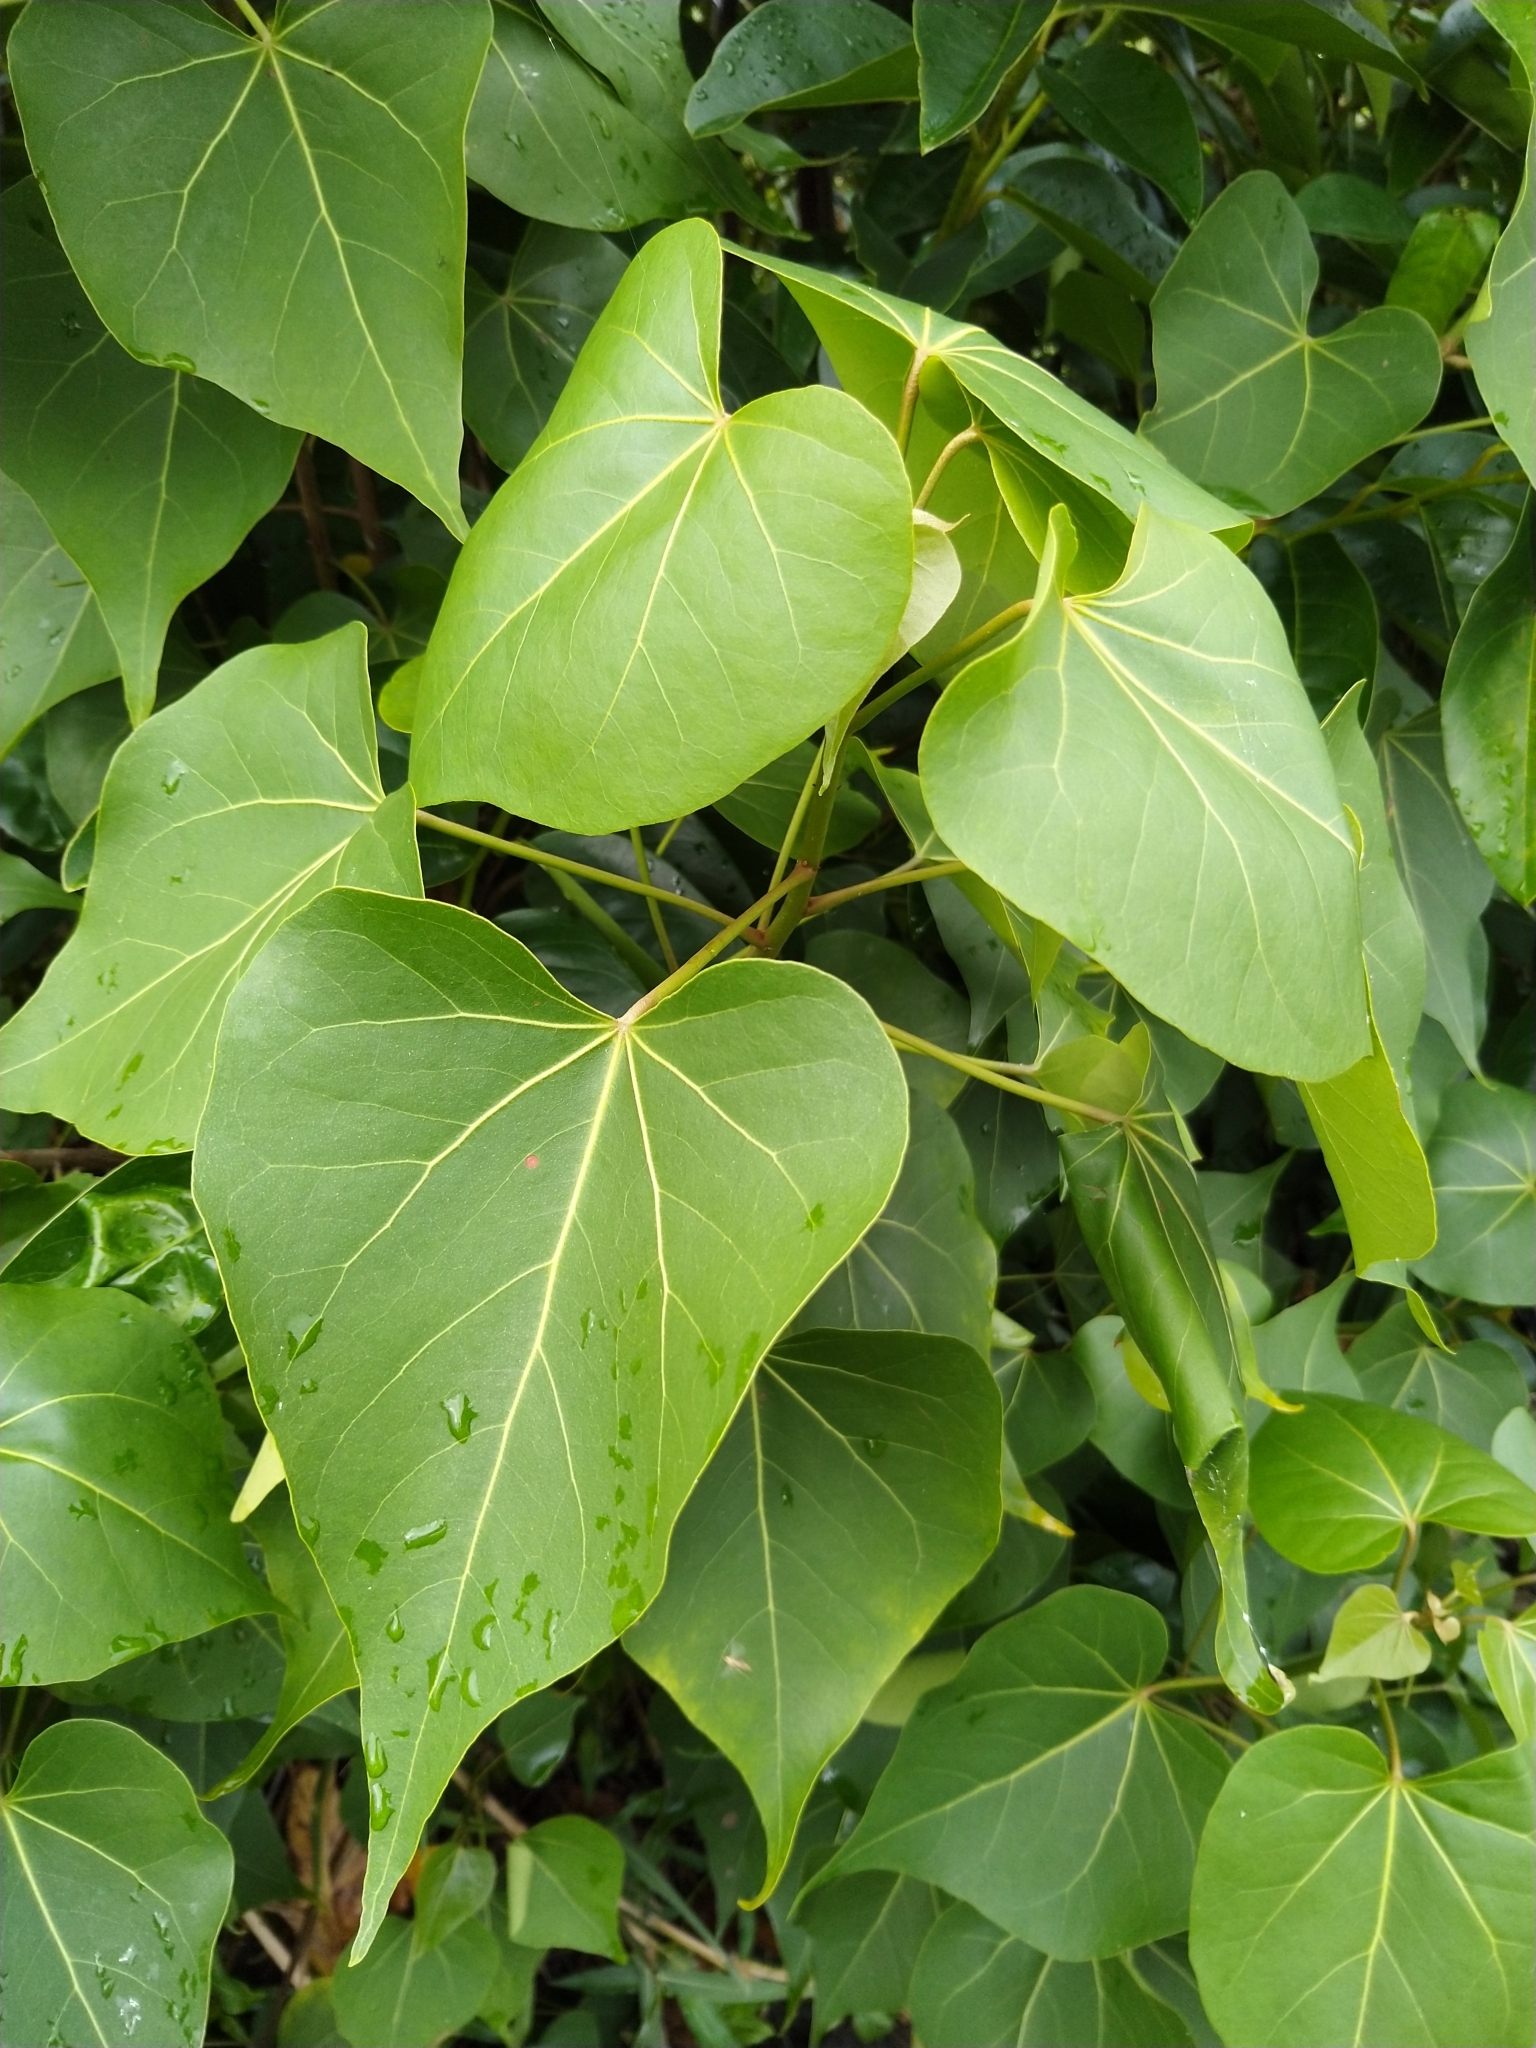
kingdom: Plantae
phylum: Tracheophyta
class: Magnoliopsida
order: Malvales
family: Malvaceae
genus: Thespesia
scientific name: Thespesia populnea
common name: Seaside mahoe
